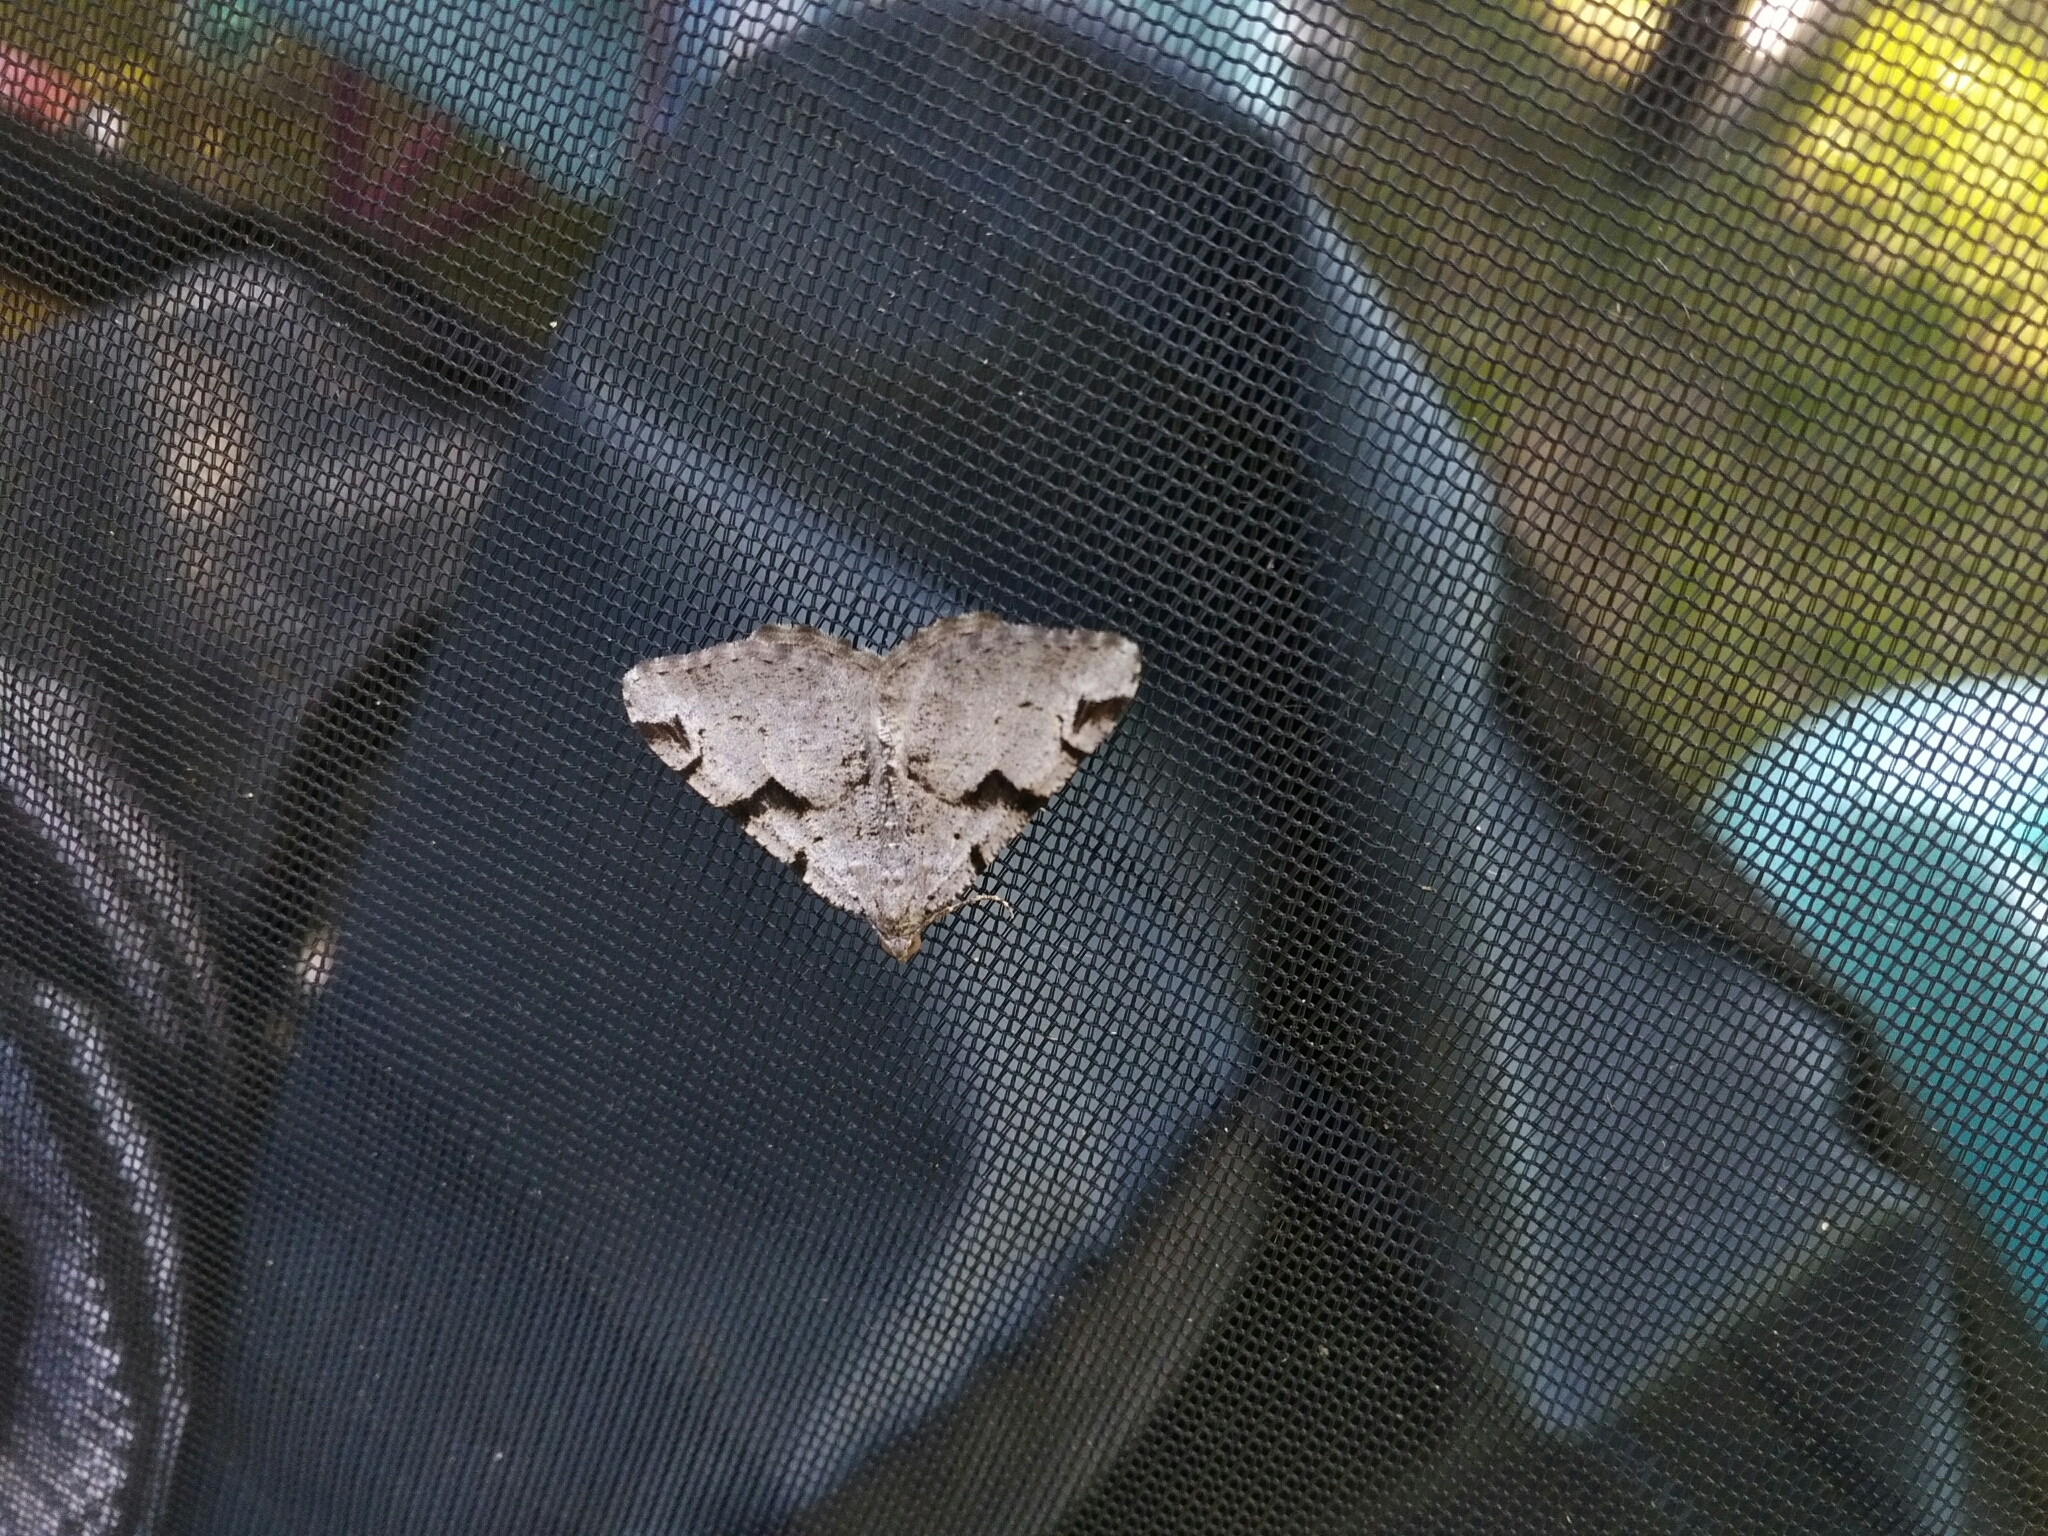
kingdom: Animalia
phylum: Arthropoda
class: Insecta
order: Lepidoptera
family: Geometridae
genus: Macaria
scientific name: Macaria bitactata
